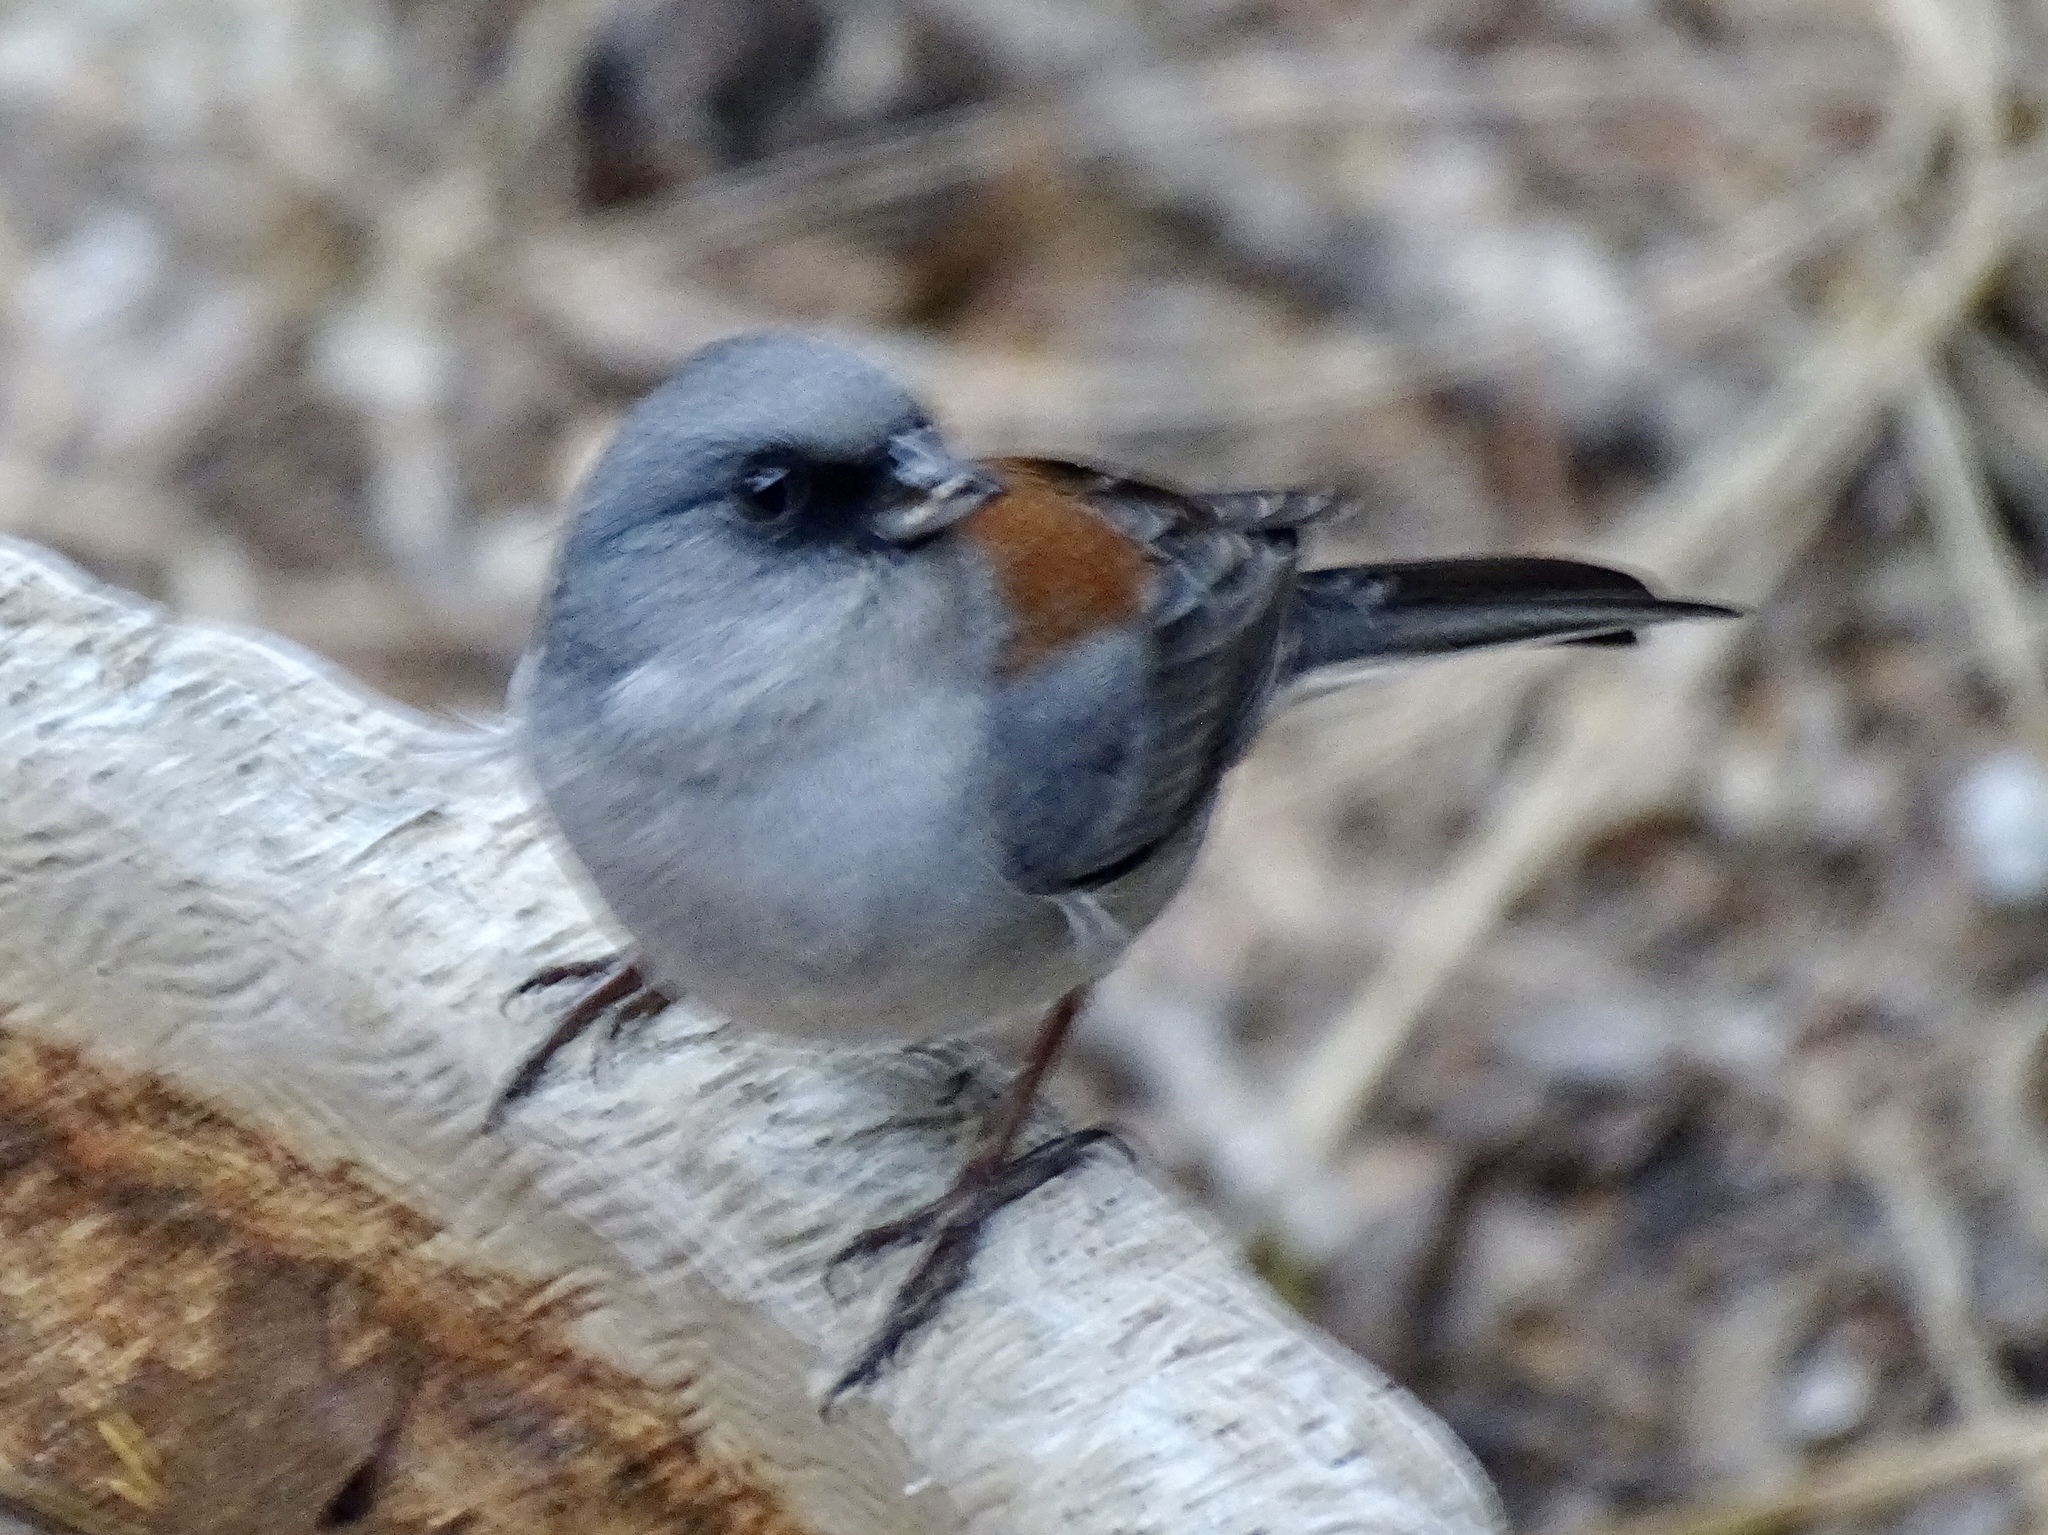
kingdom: Animalia
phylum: Chordata
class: Aves
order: Passeriformes
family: Passerellidae
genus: Junco
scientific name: Junco hyemalis
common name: Dark-eyed junco
